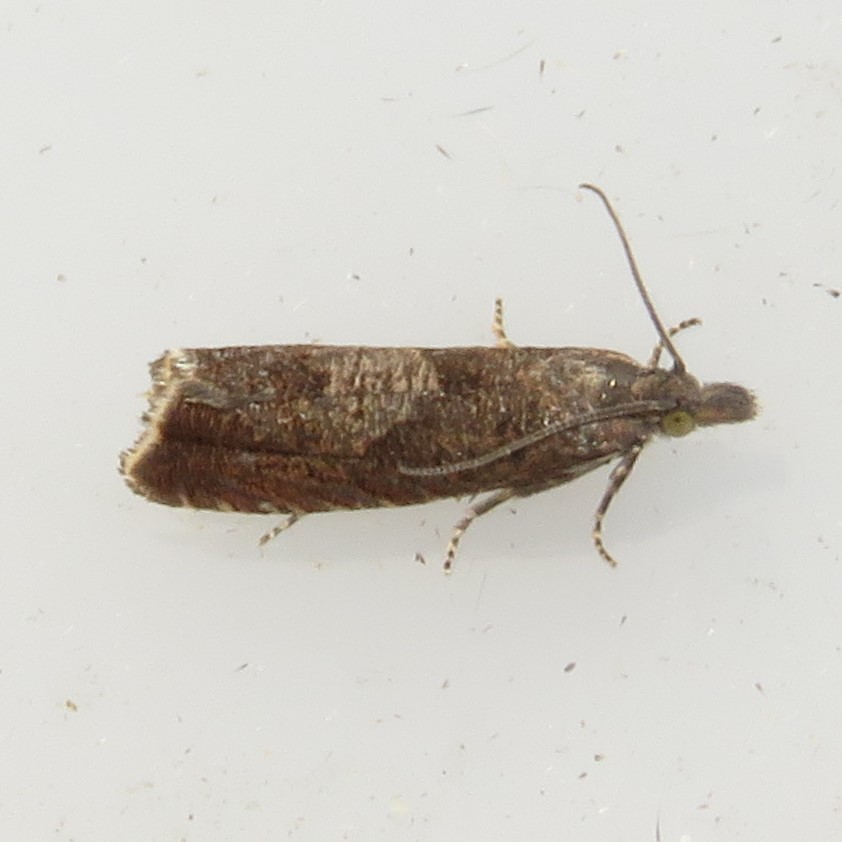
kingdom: Animalia
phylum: Arthropoda
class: Insecta
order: Lepidoptera
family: Tortricidae
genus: Dichrorampha
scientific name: Dichrorampha acuminatana
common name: Sharp-winged drill
